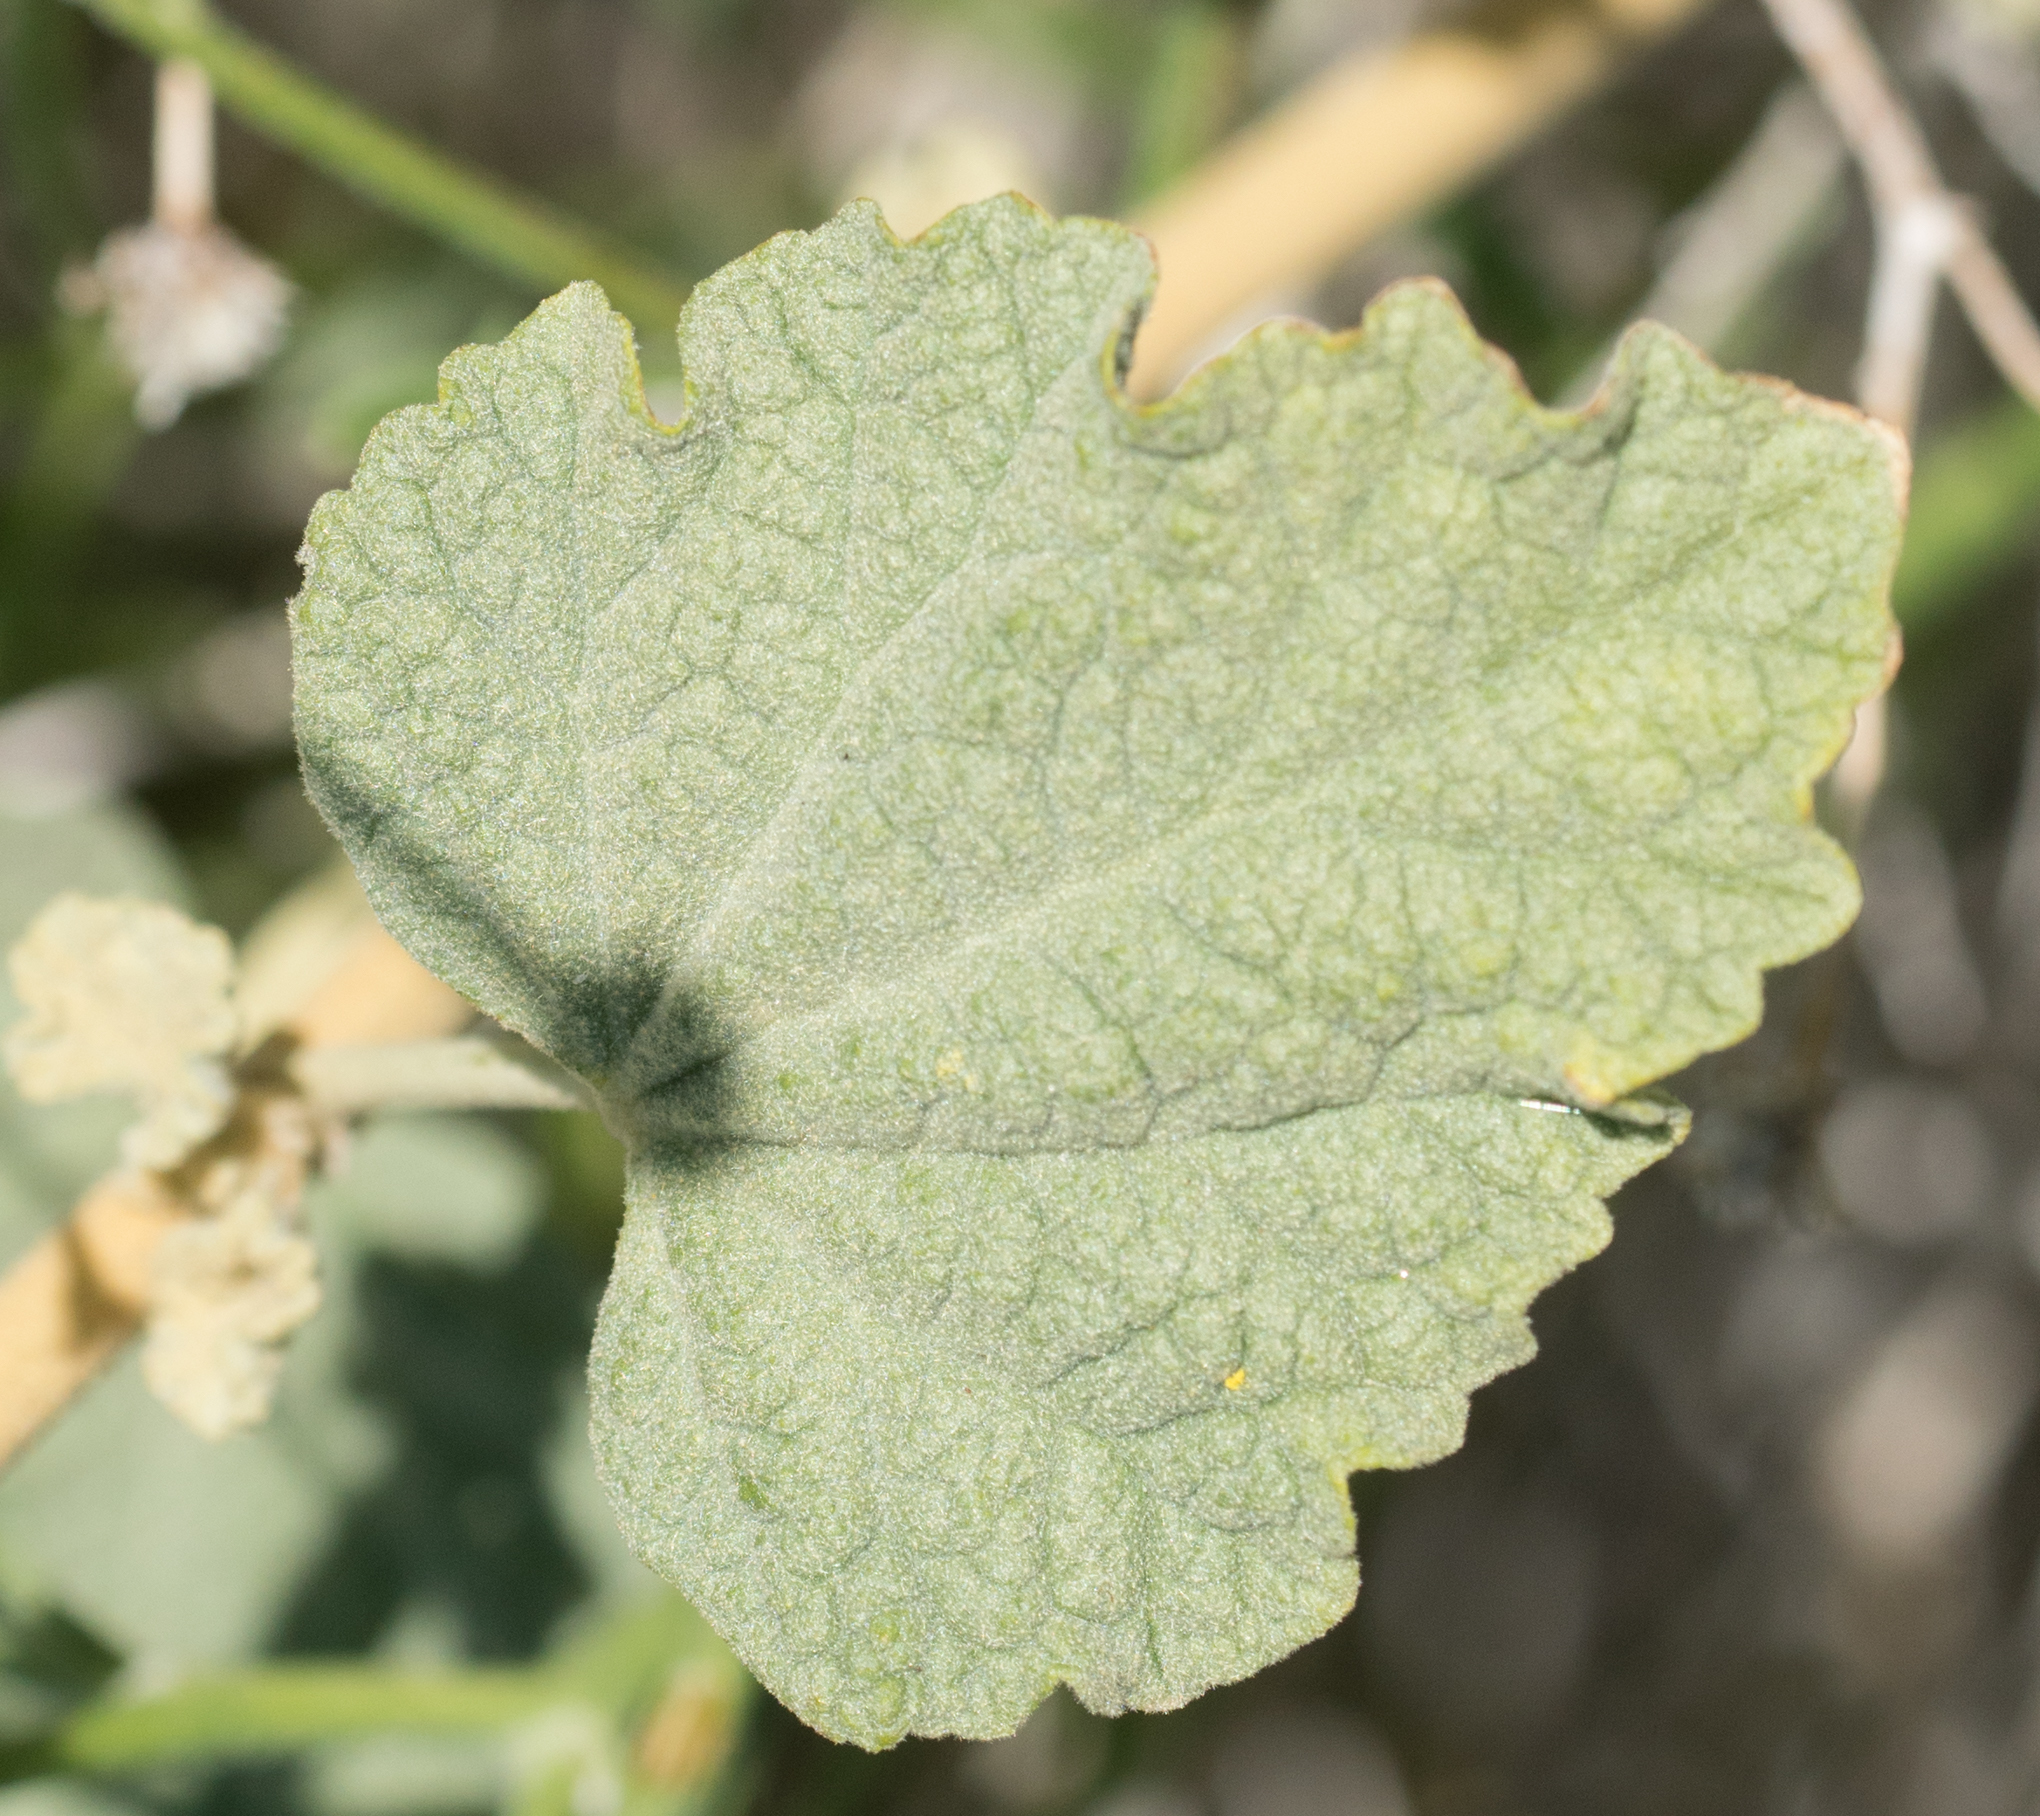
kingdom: Plantae
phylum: Tracheophyta
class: Magnoliopsida
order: Malvales
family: Malvaceae
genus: Sphaeralcea
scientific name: Sphaeralcea ambigua
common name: Apricot globe-mallow
